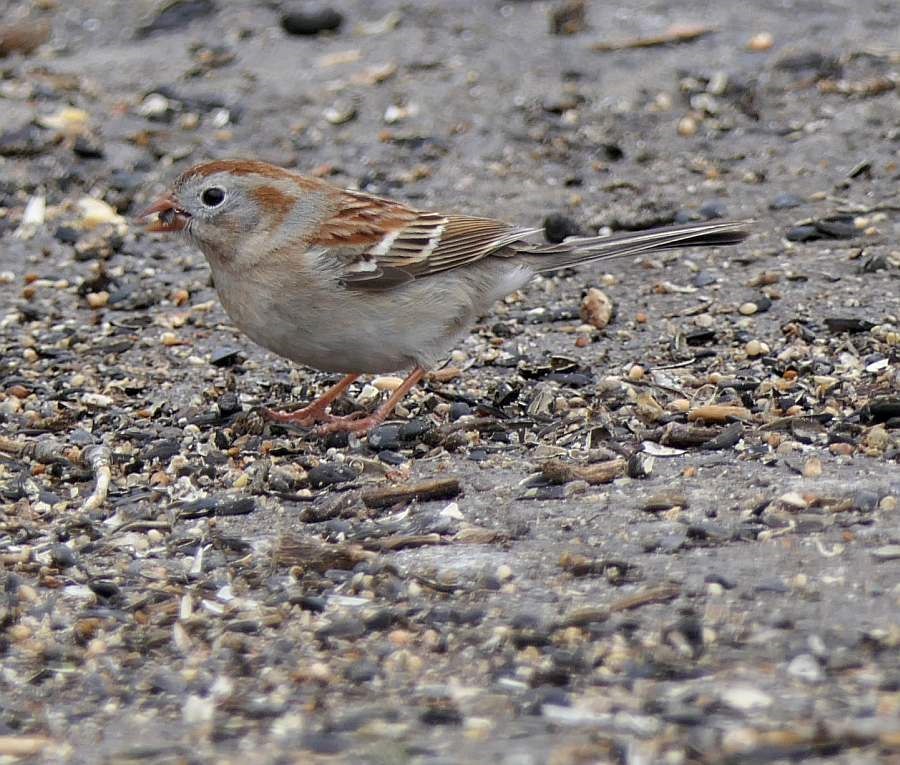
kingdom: Animalia
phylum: Chordata
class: Aves
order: Passeriformes
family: Passerellidae
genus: Spizella
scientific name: Spizella pusilla
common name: Field sparrow
